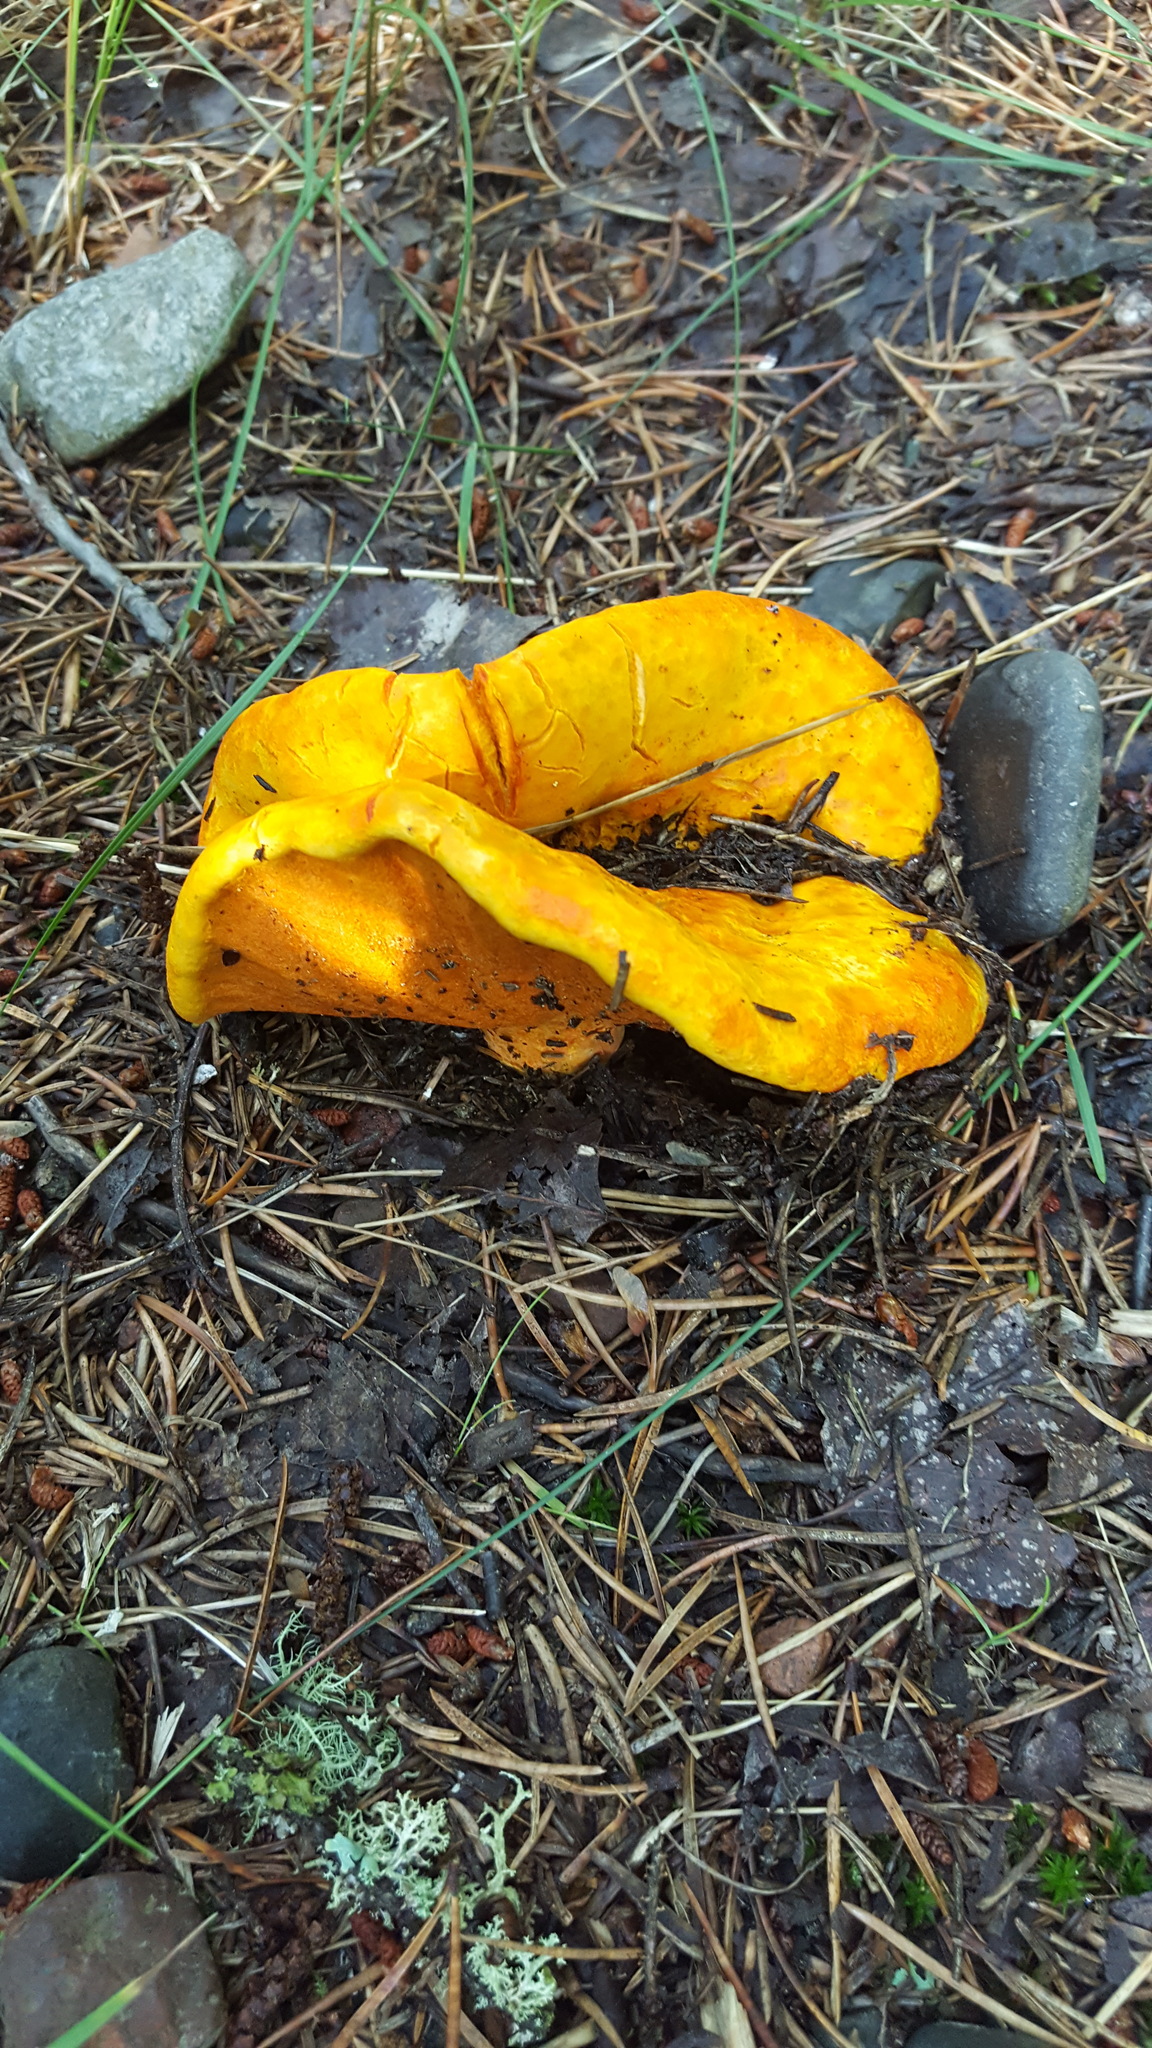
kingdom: Fungi
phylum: Ascomycota
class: Sordariomycetes
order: Hypocreales
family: Hypocreaceae
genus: Hypomyces
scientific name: Hypomyces lactifluorum
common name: Lobster mushroom
